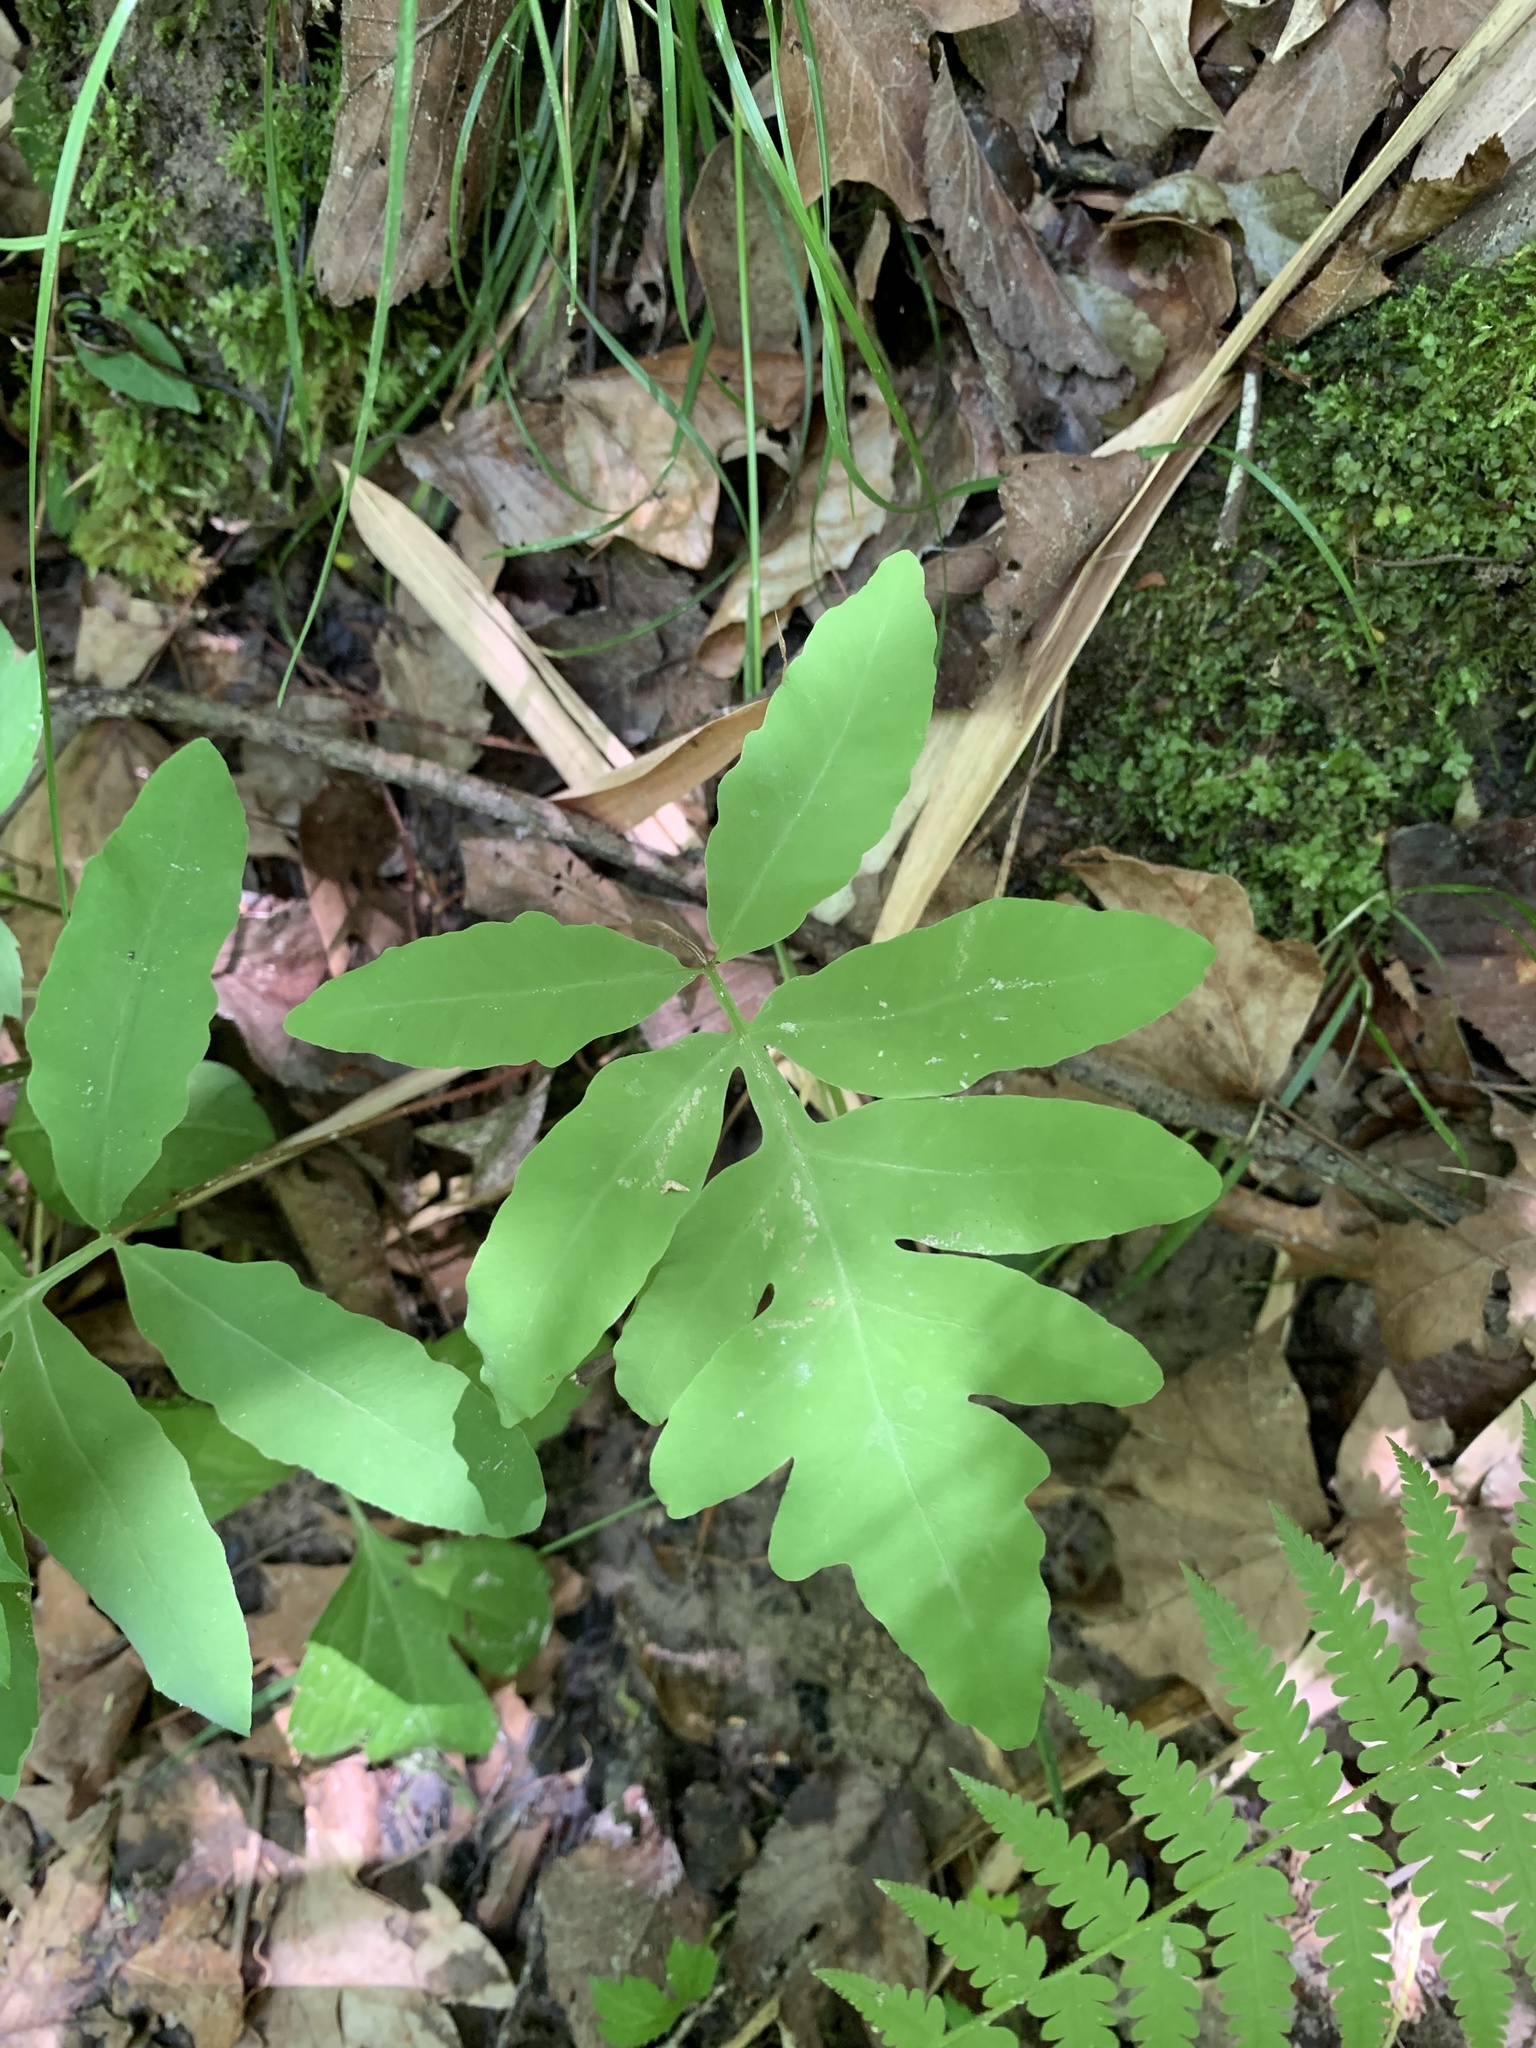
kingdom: Plantae
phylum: Tracheophyta
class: Polypodiopsida
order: Polypodiales
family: Onocleaceae
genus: Onoclea
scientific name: Onoclea sensibilis
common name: Sensitive fern
